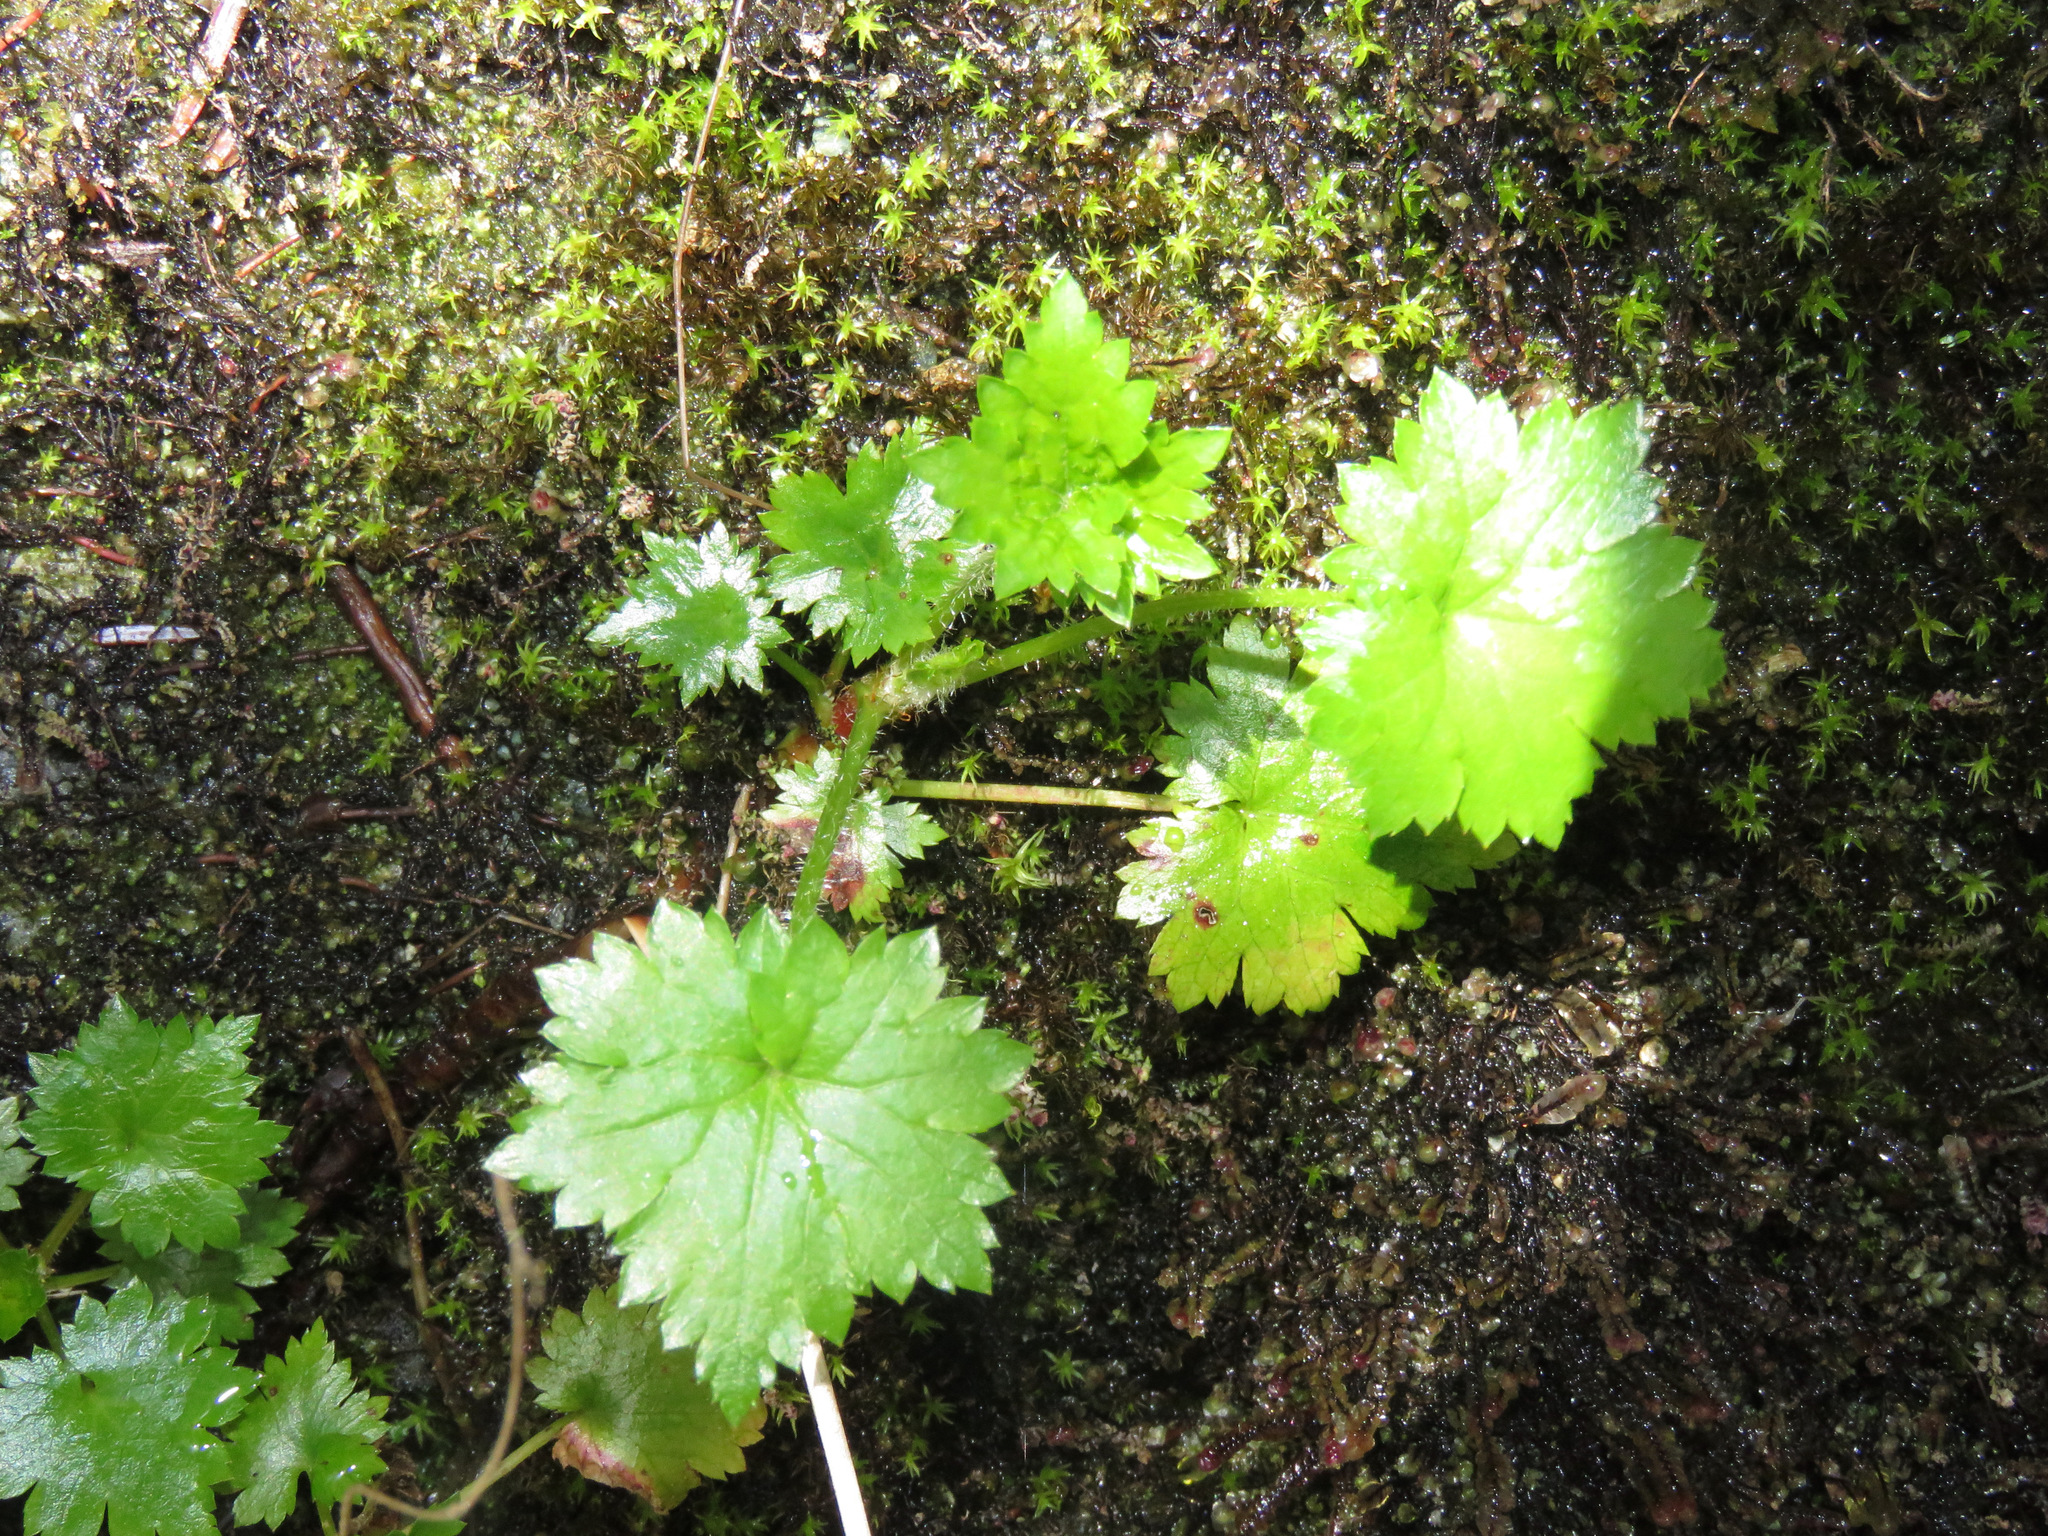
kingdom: Plantae
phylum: Tracheophyta
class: Magnoliopsida
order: Saxifragales
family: Saxifragaceae
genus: Boykinia
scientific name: Boykinia occidentalis
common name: Coast boykinia
